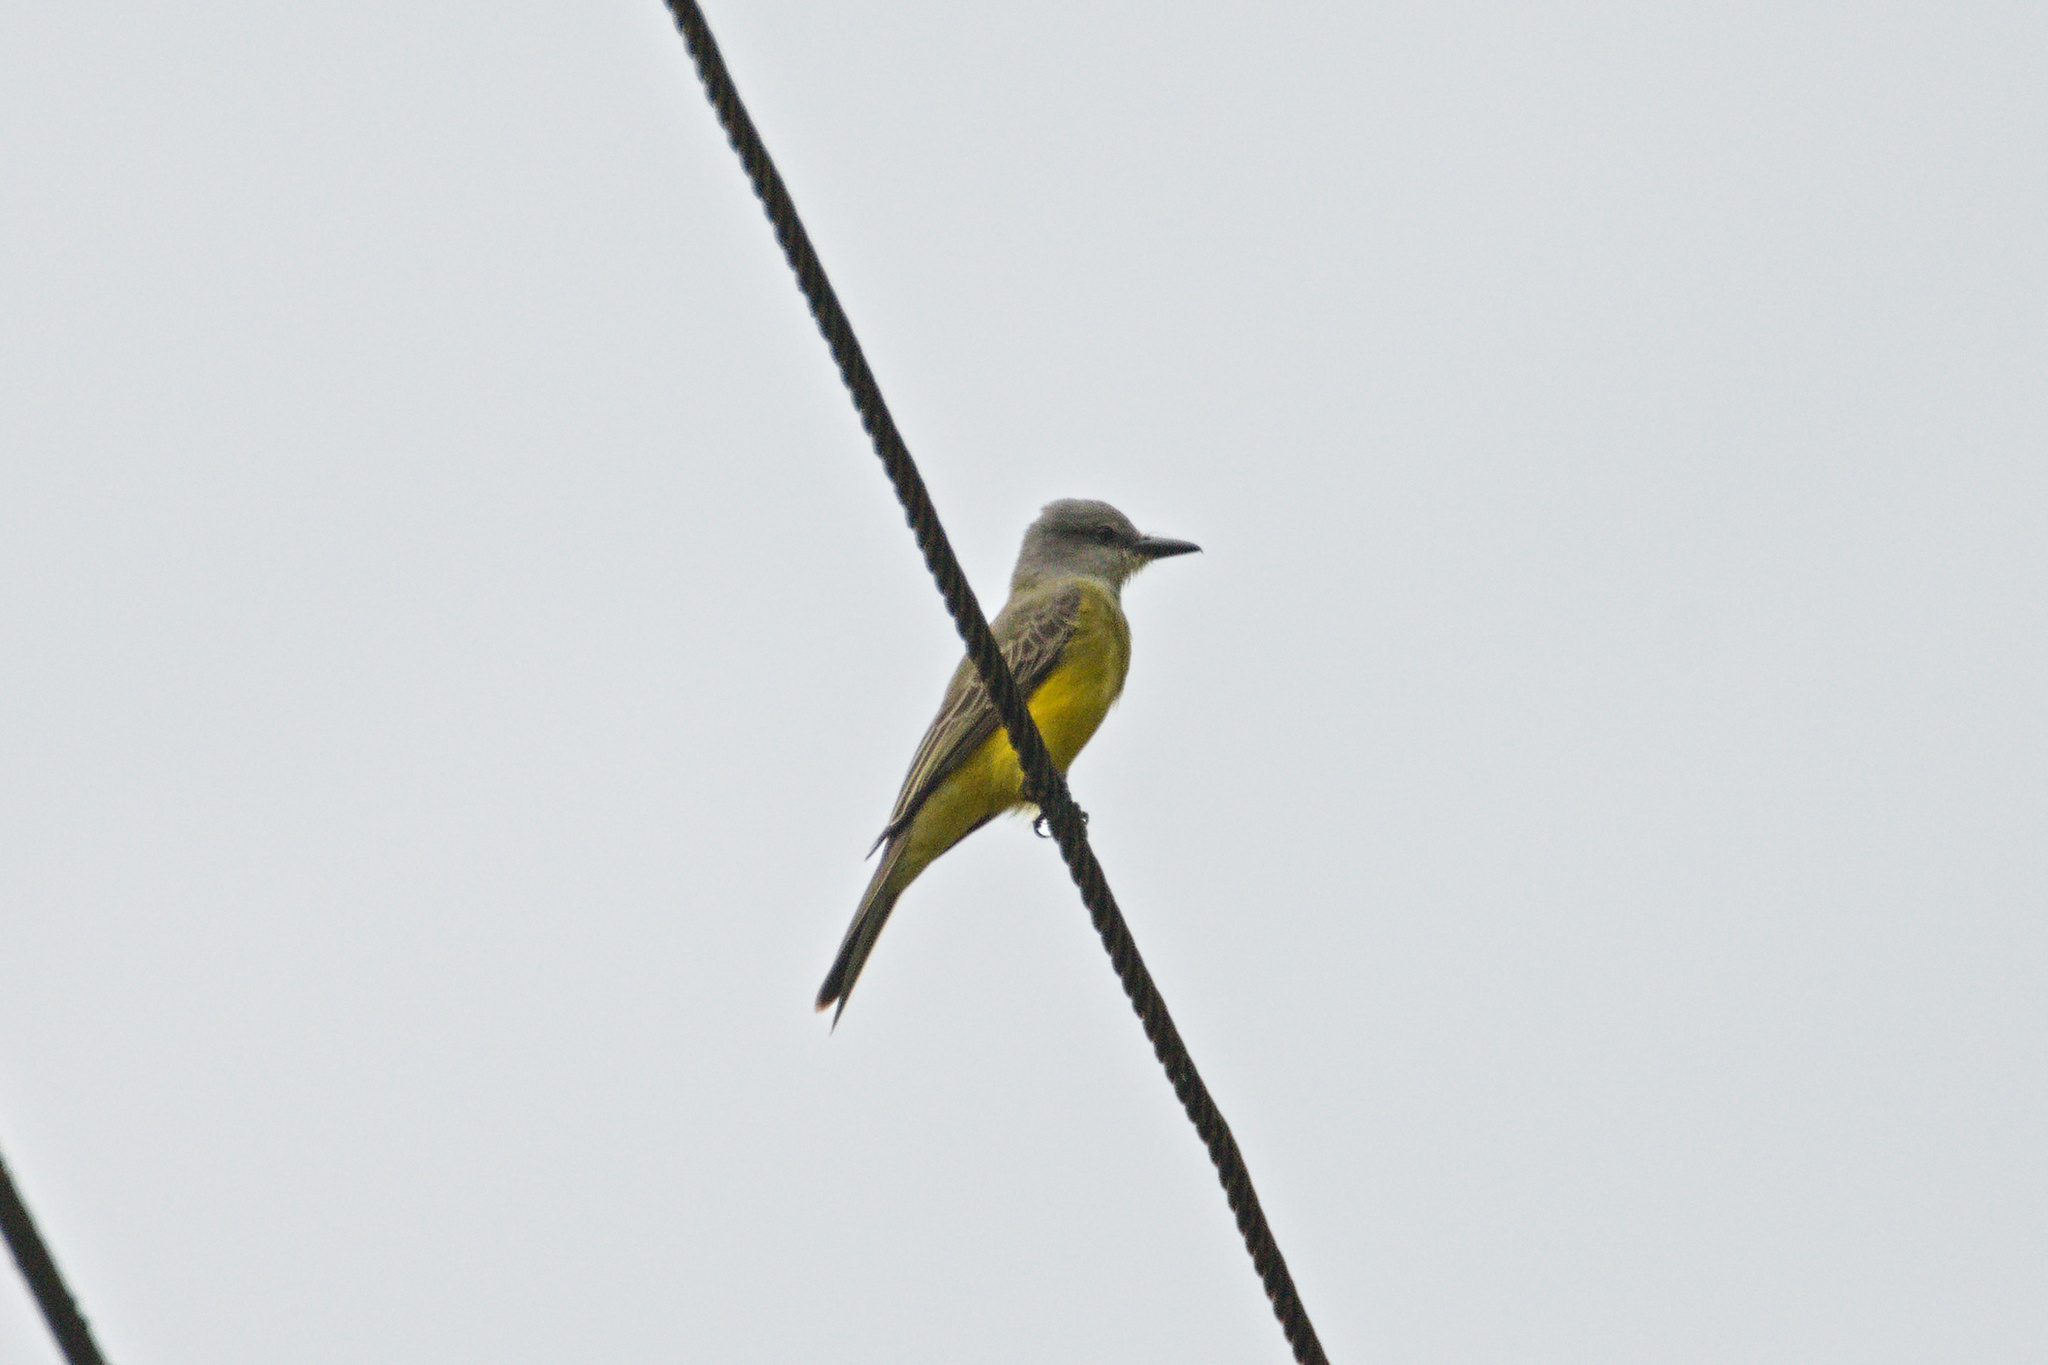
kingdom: Animalia
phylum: Chordata
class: Aves
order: Passeriformes
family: Tyrannidae
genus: Tyrannus
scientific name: Tyrannus melancholicus
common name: Tropical kingbird
